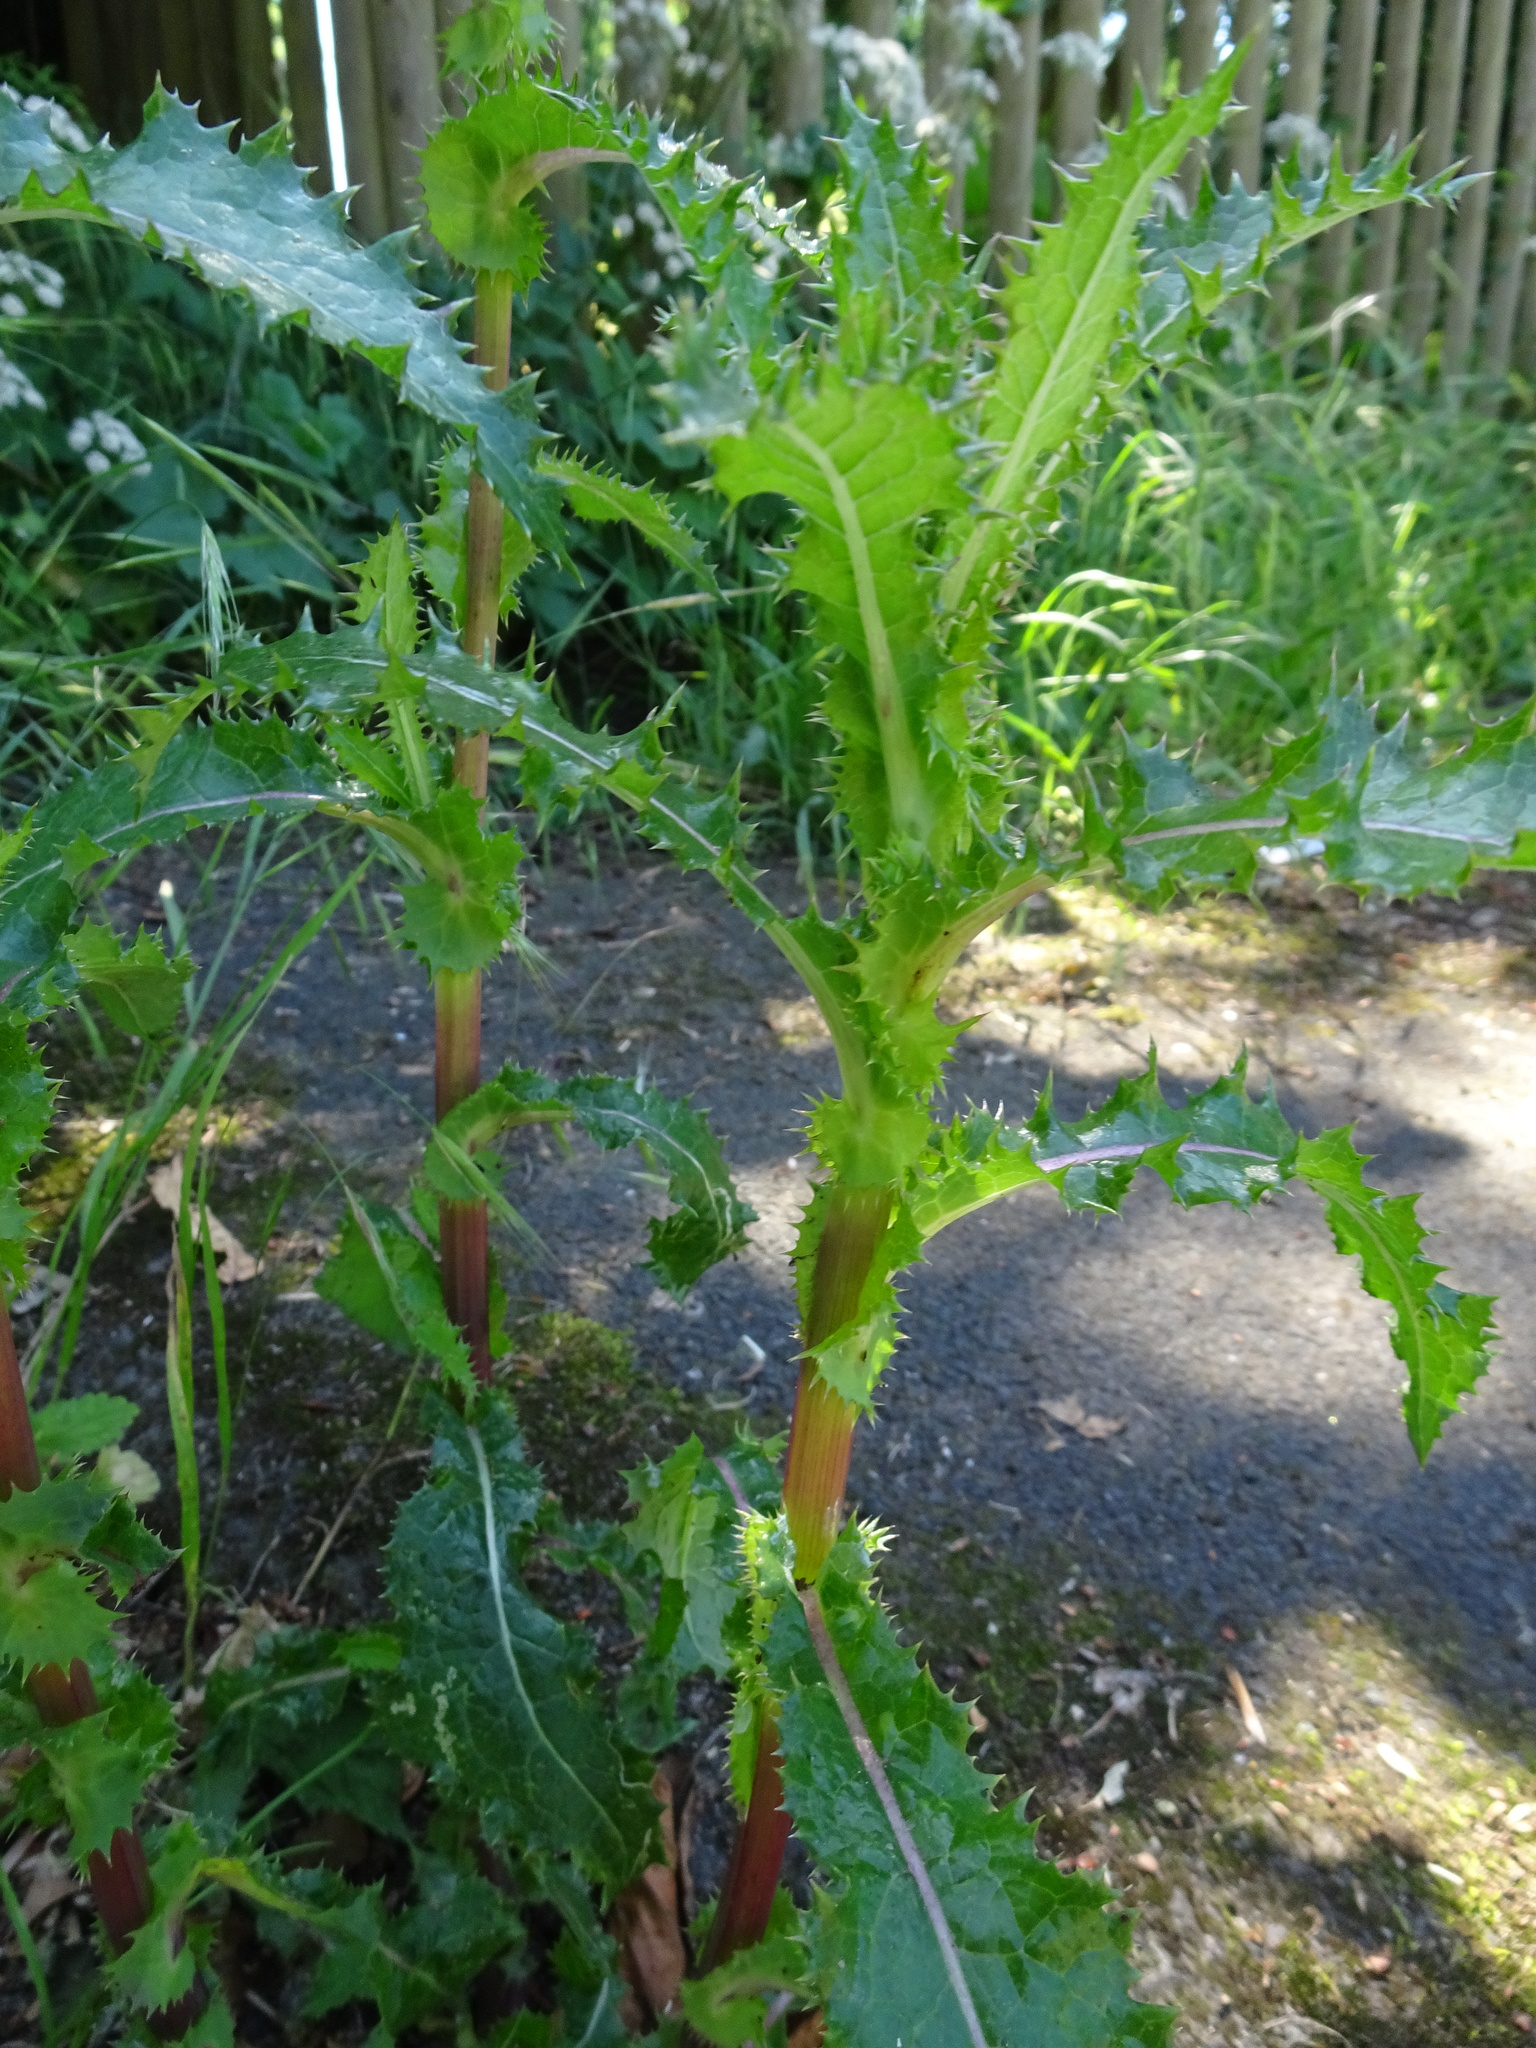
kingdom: Plantae
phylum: Tracheophyta
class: Magnoliopsida
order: Asterales
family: Asteraceae
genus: Sonchus
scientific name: Sonchus asper
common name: Prickly sow-thistle
